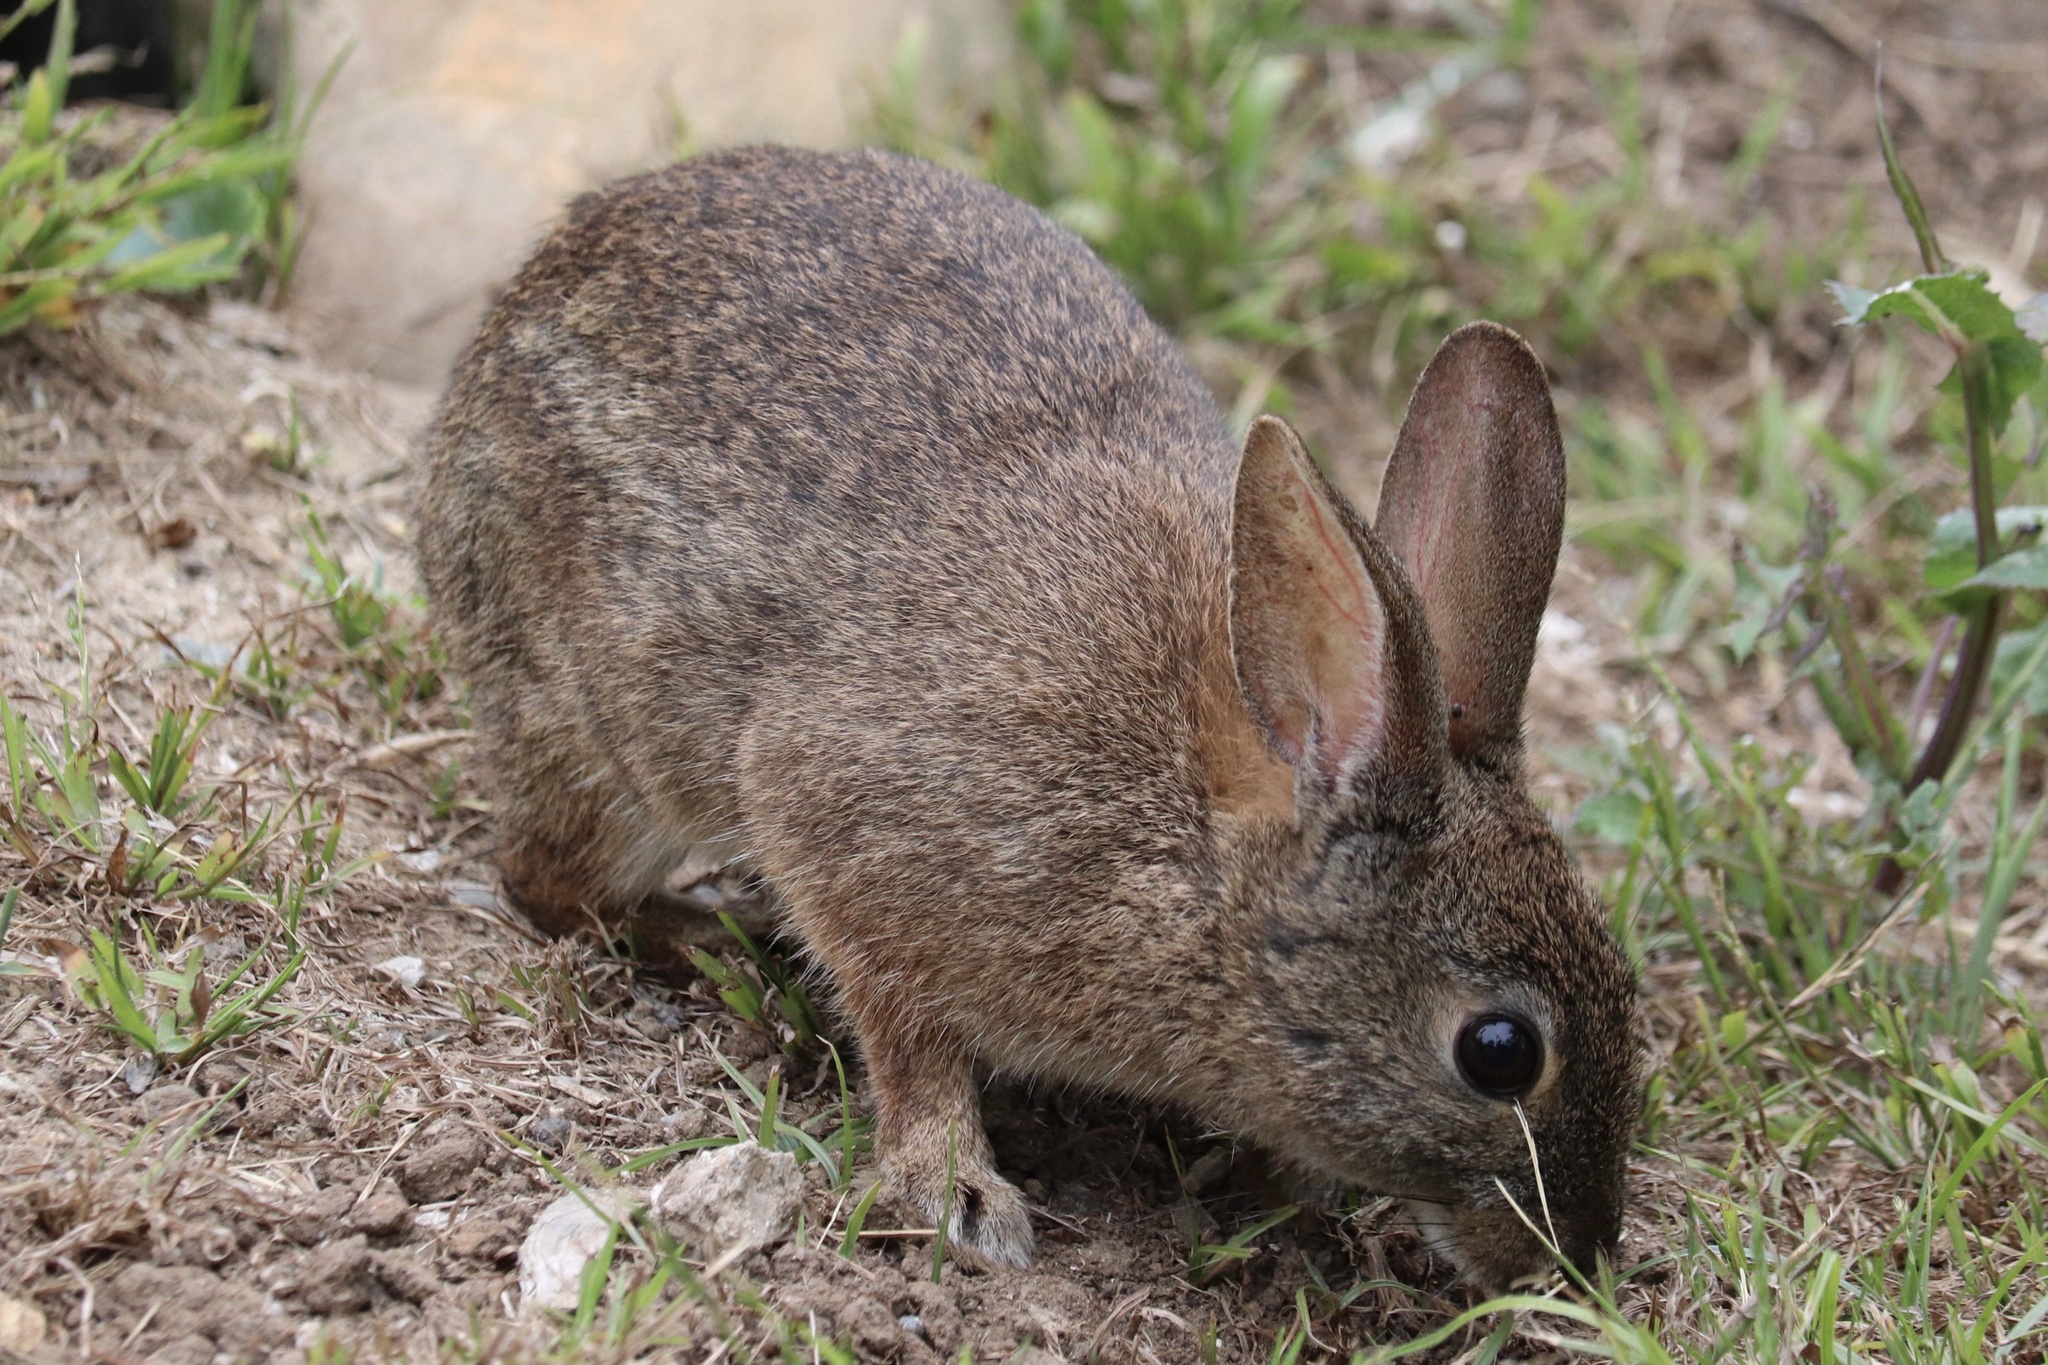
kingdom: Animalia
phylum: Chordata
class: Mammalia
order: Lagomorpha
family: Leporidae
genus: Sylvilagus
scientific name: Sylvilagus bachmani
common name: Brush rabbit
